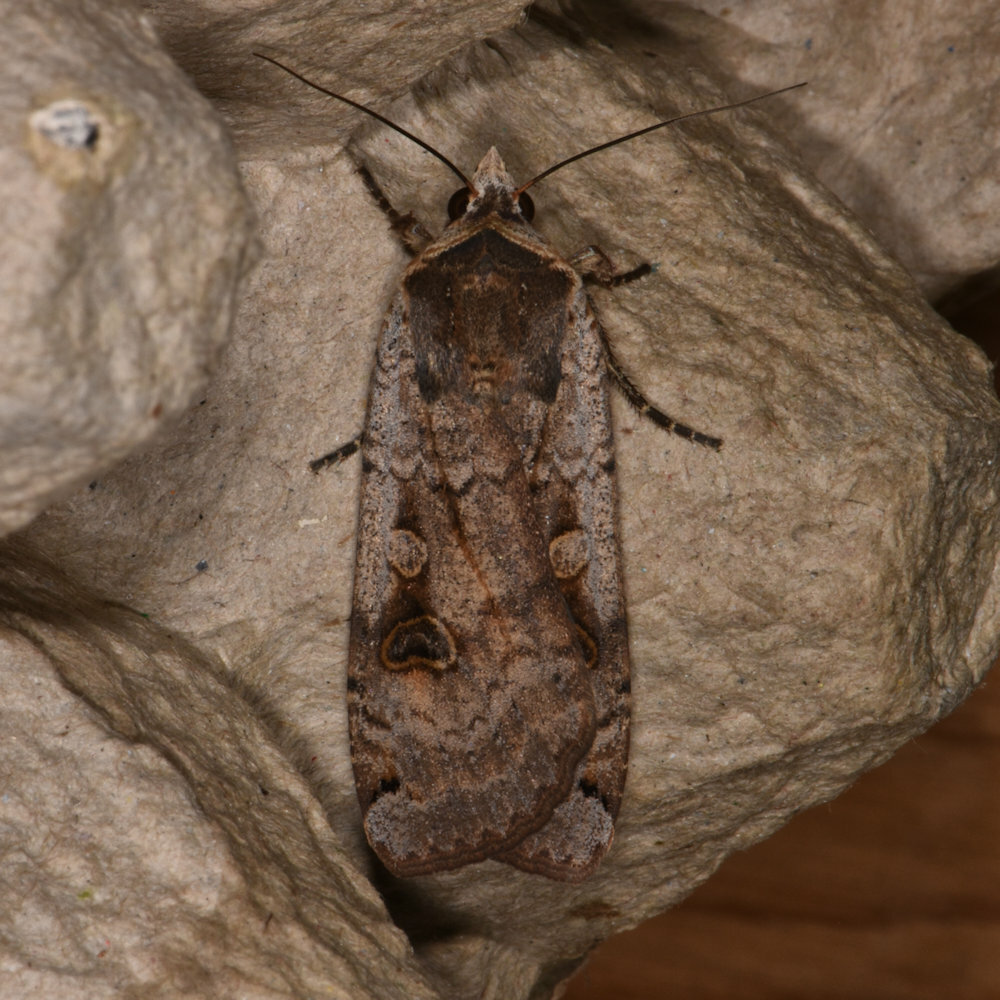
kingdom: Animalia
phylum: Arthropoda
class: Insecta
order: Lepidoptera
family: Noctuidae
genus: Noctua
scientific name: Noctua pronuba
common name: Large yellow underwing
